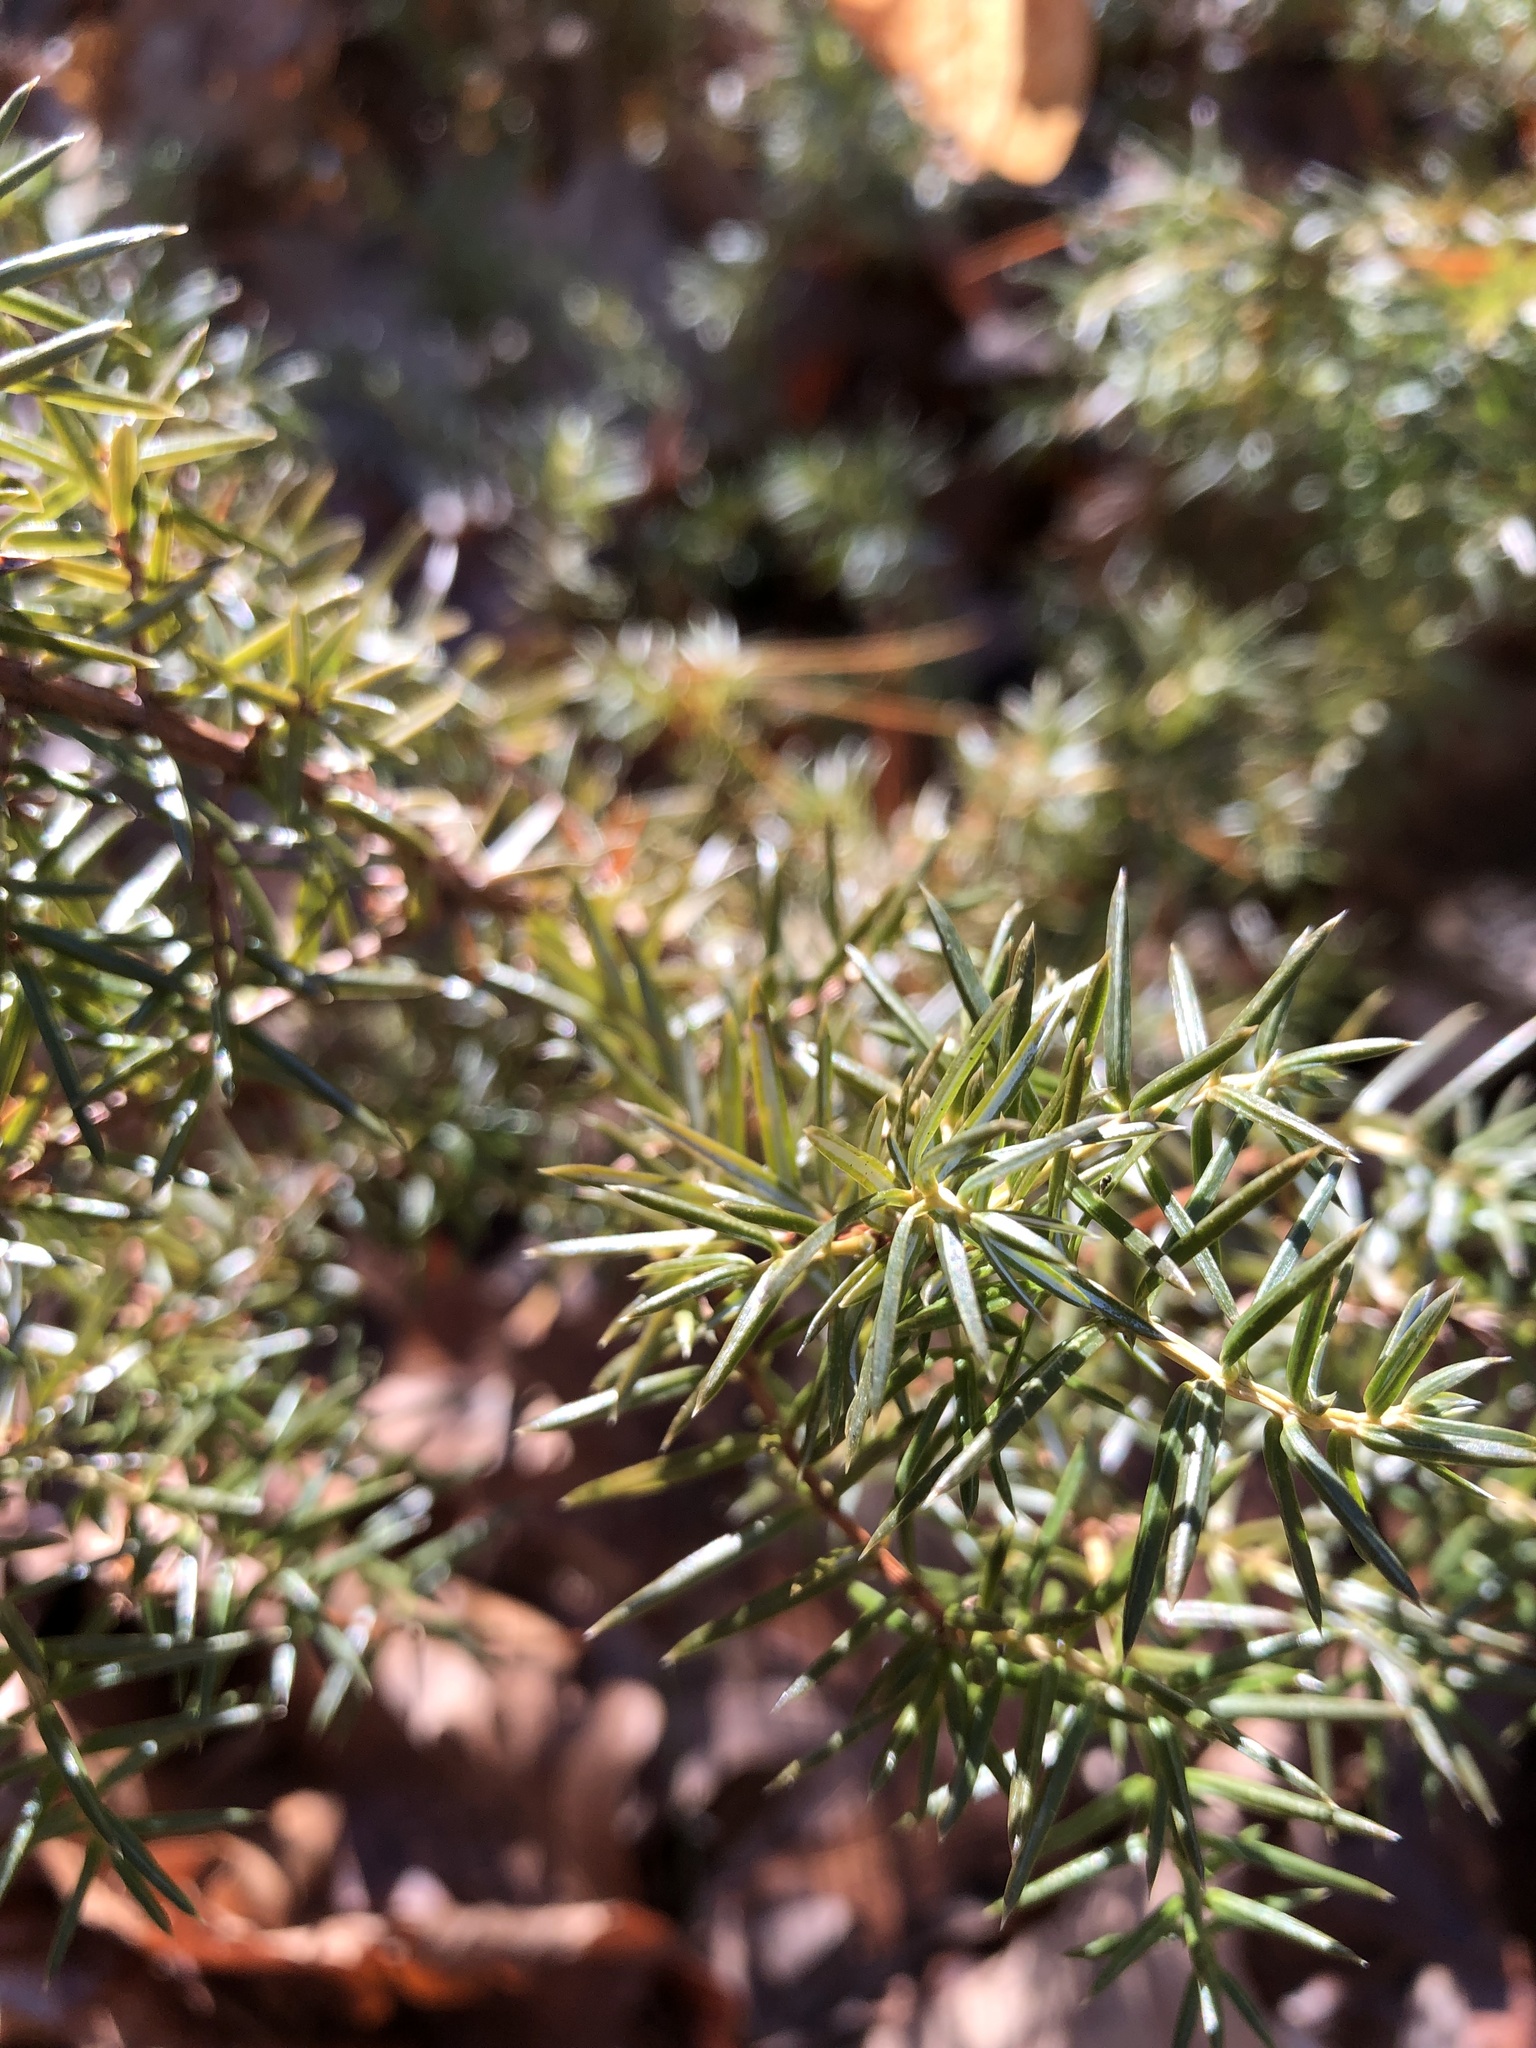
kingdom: Plantae
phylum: Tracheophyta
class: Pinopsida
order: Pinales
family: Cupressaceae
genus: Juniperus
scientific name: Juniperus communis
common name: Common juniper
